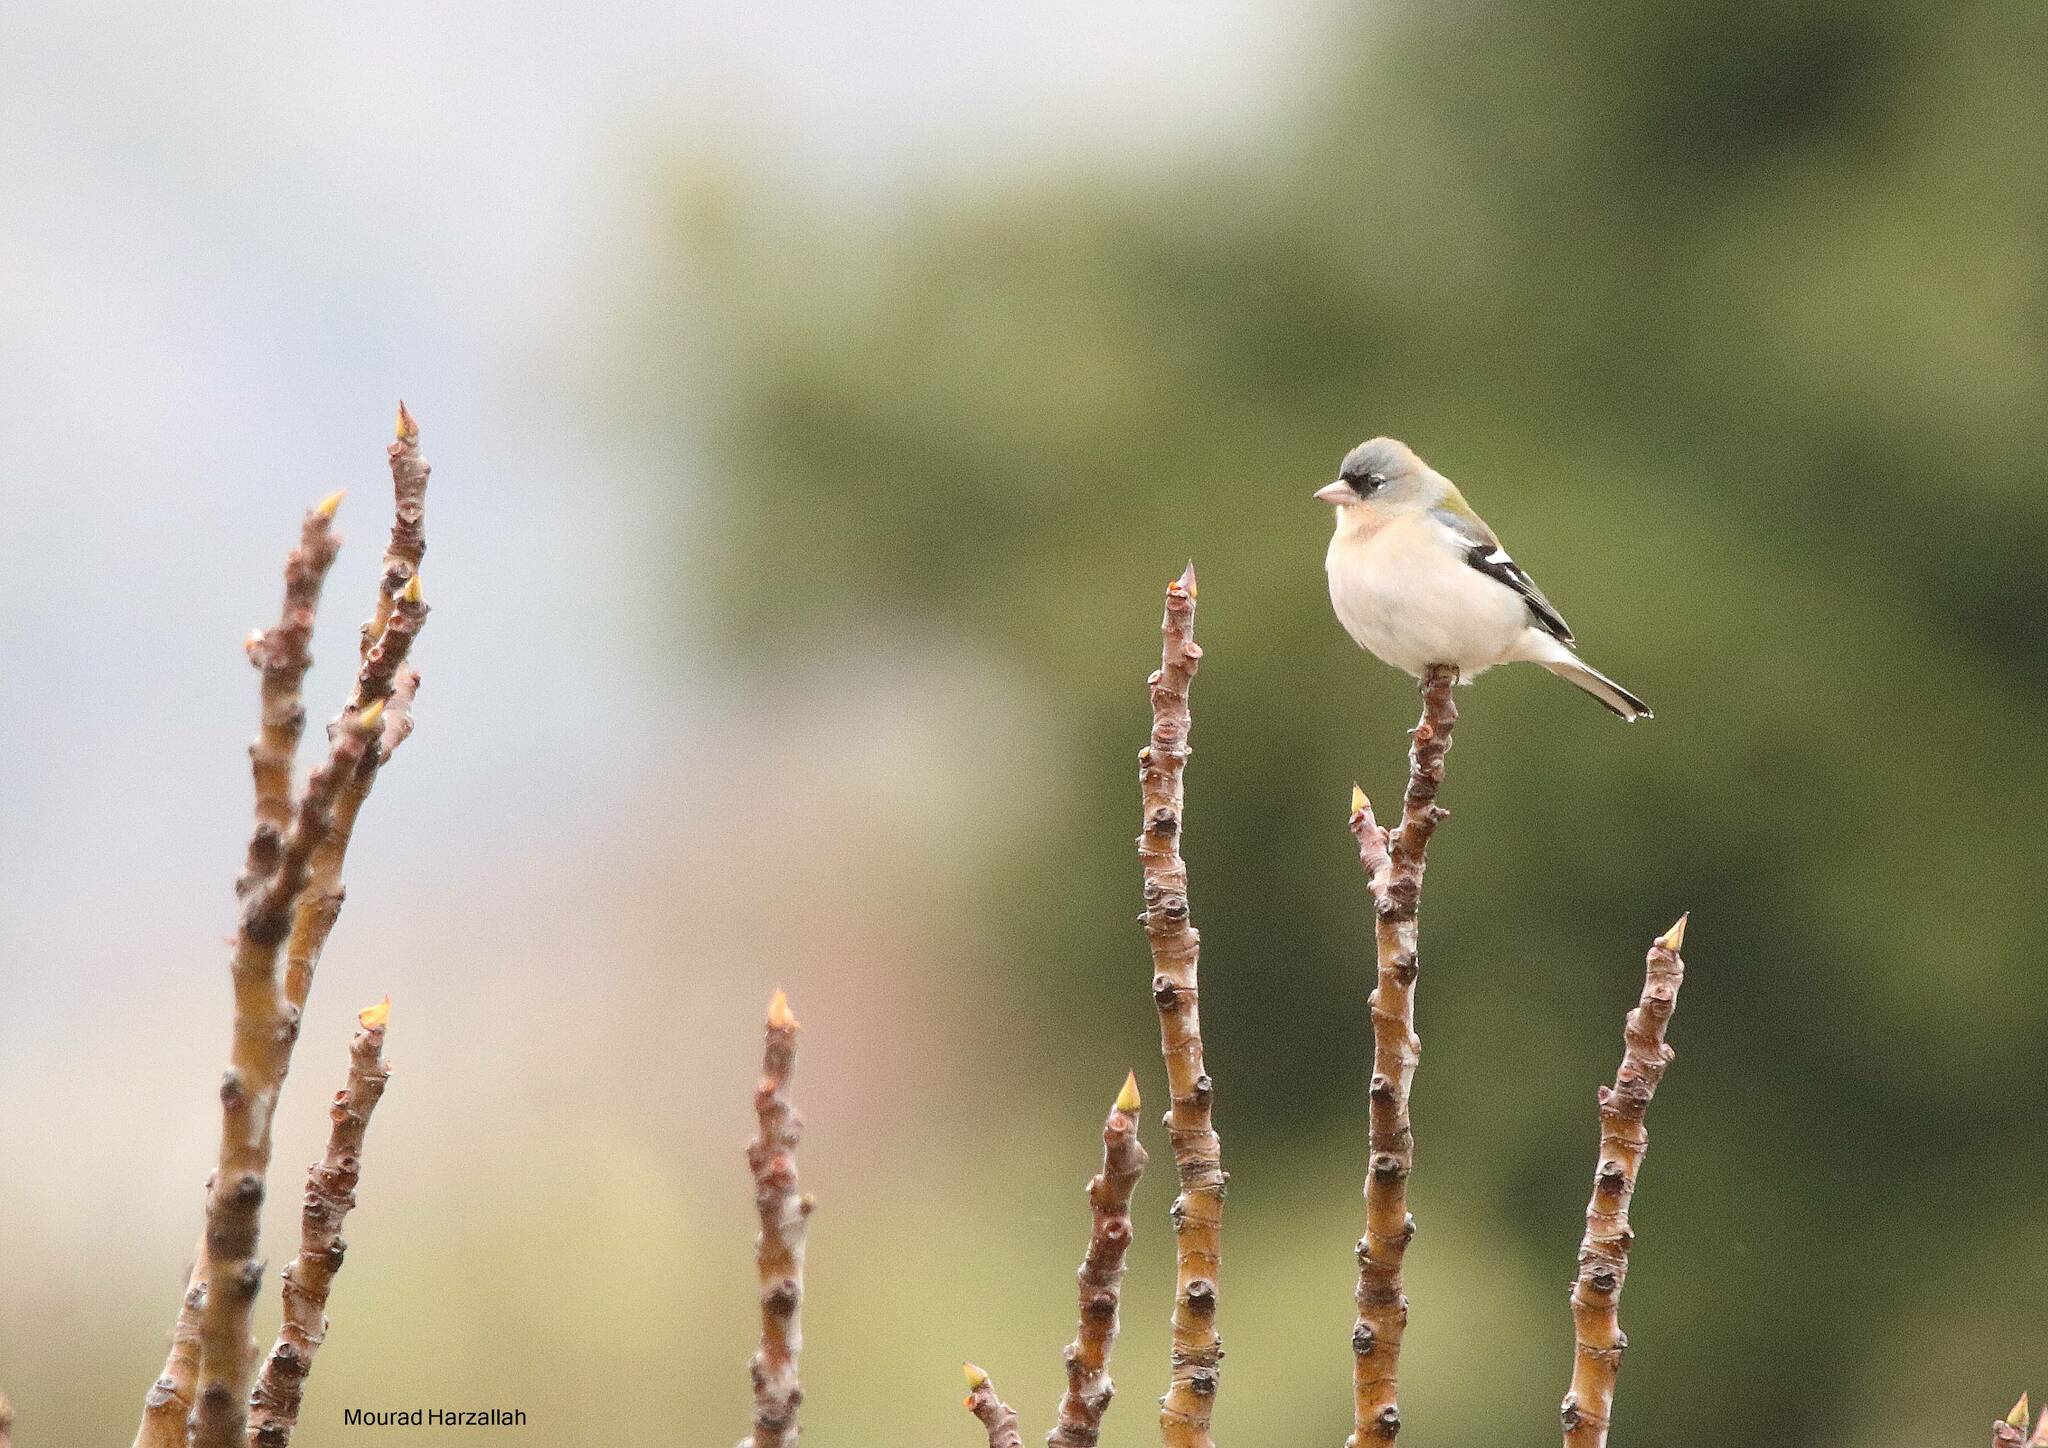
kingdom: Animalia
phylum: Chordata
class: Aves
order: Passeriformes
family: Fringillidae
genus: Fringilla
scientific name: Fringilla spodiogenys
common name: African chaffinch
